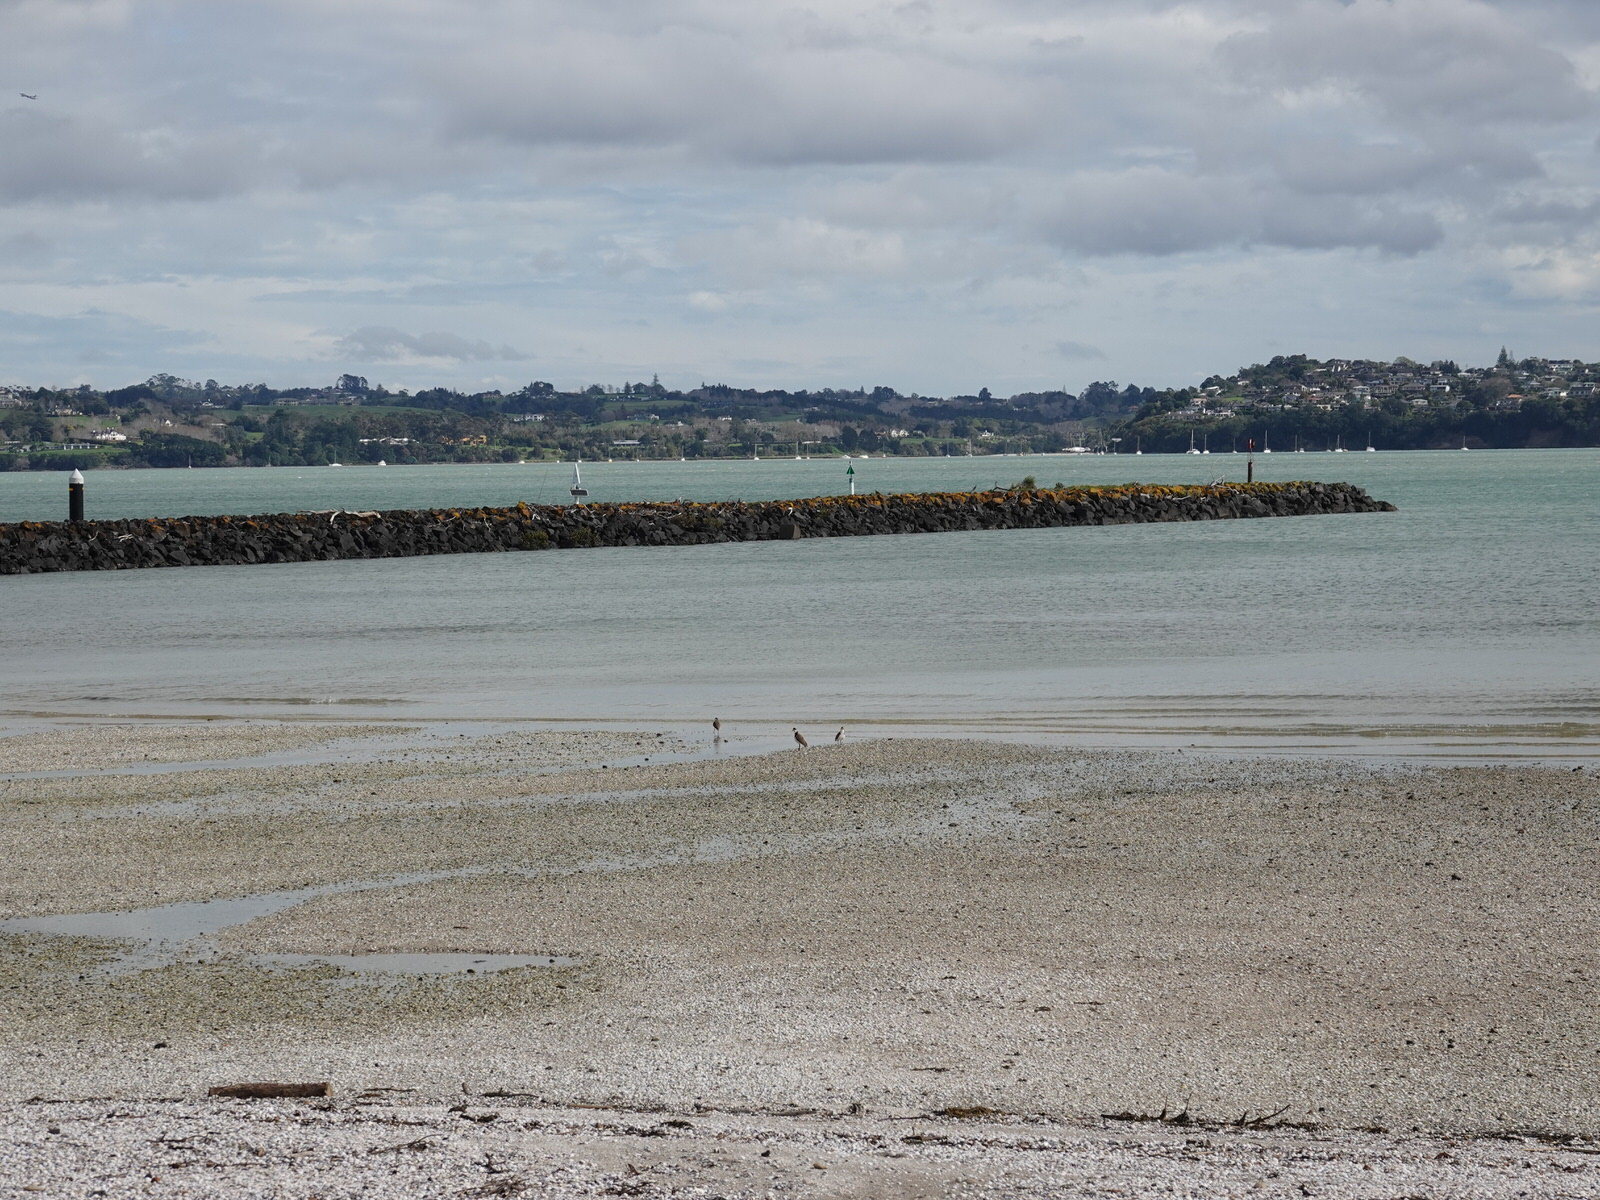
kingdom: Animalia
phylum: Chordata
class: Aves
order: Charadriiformes
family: Charadriidae
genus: Vanellus
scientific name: Vanellus miles
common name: Masked lapwing
